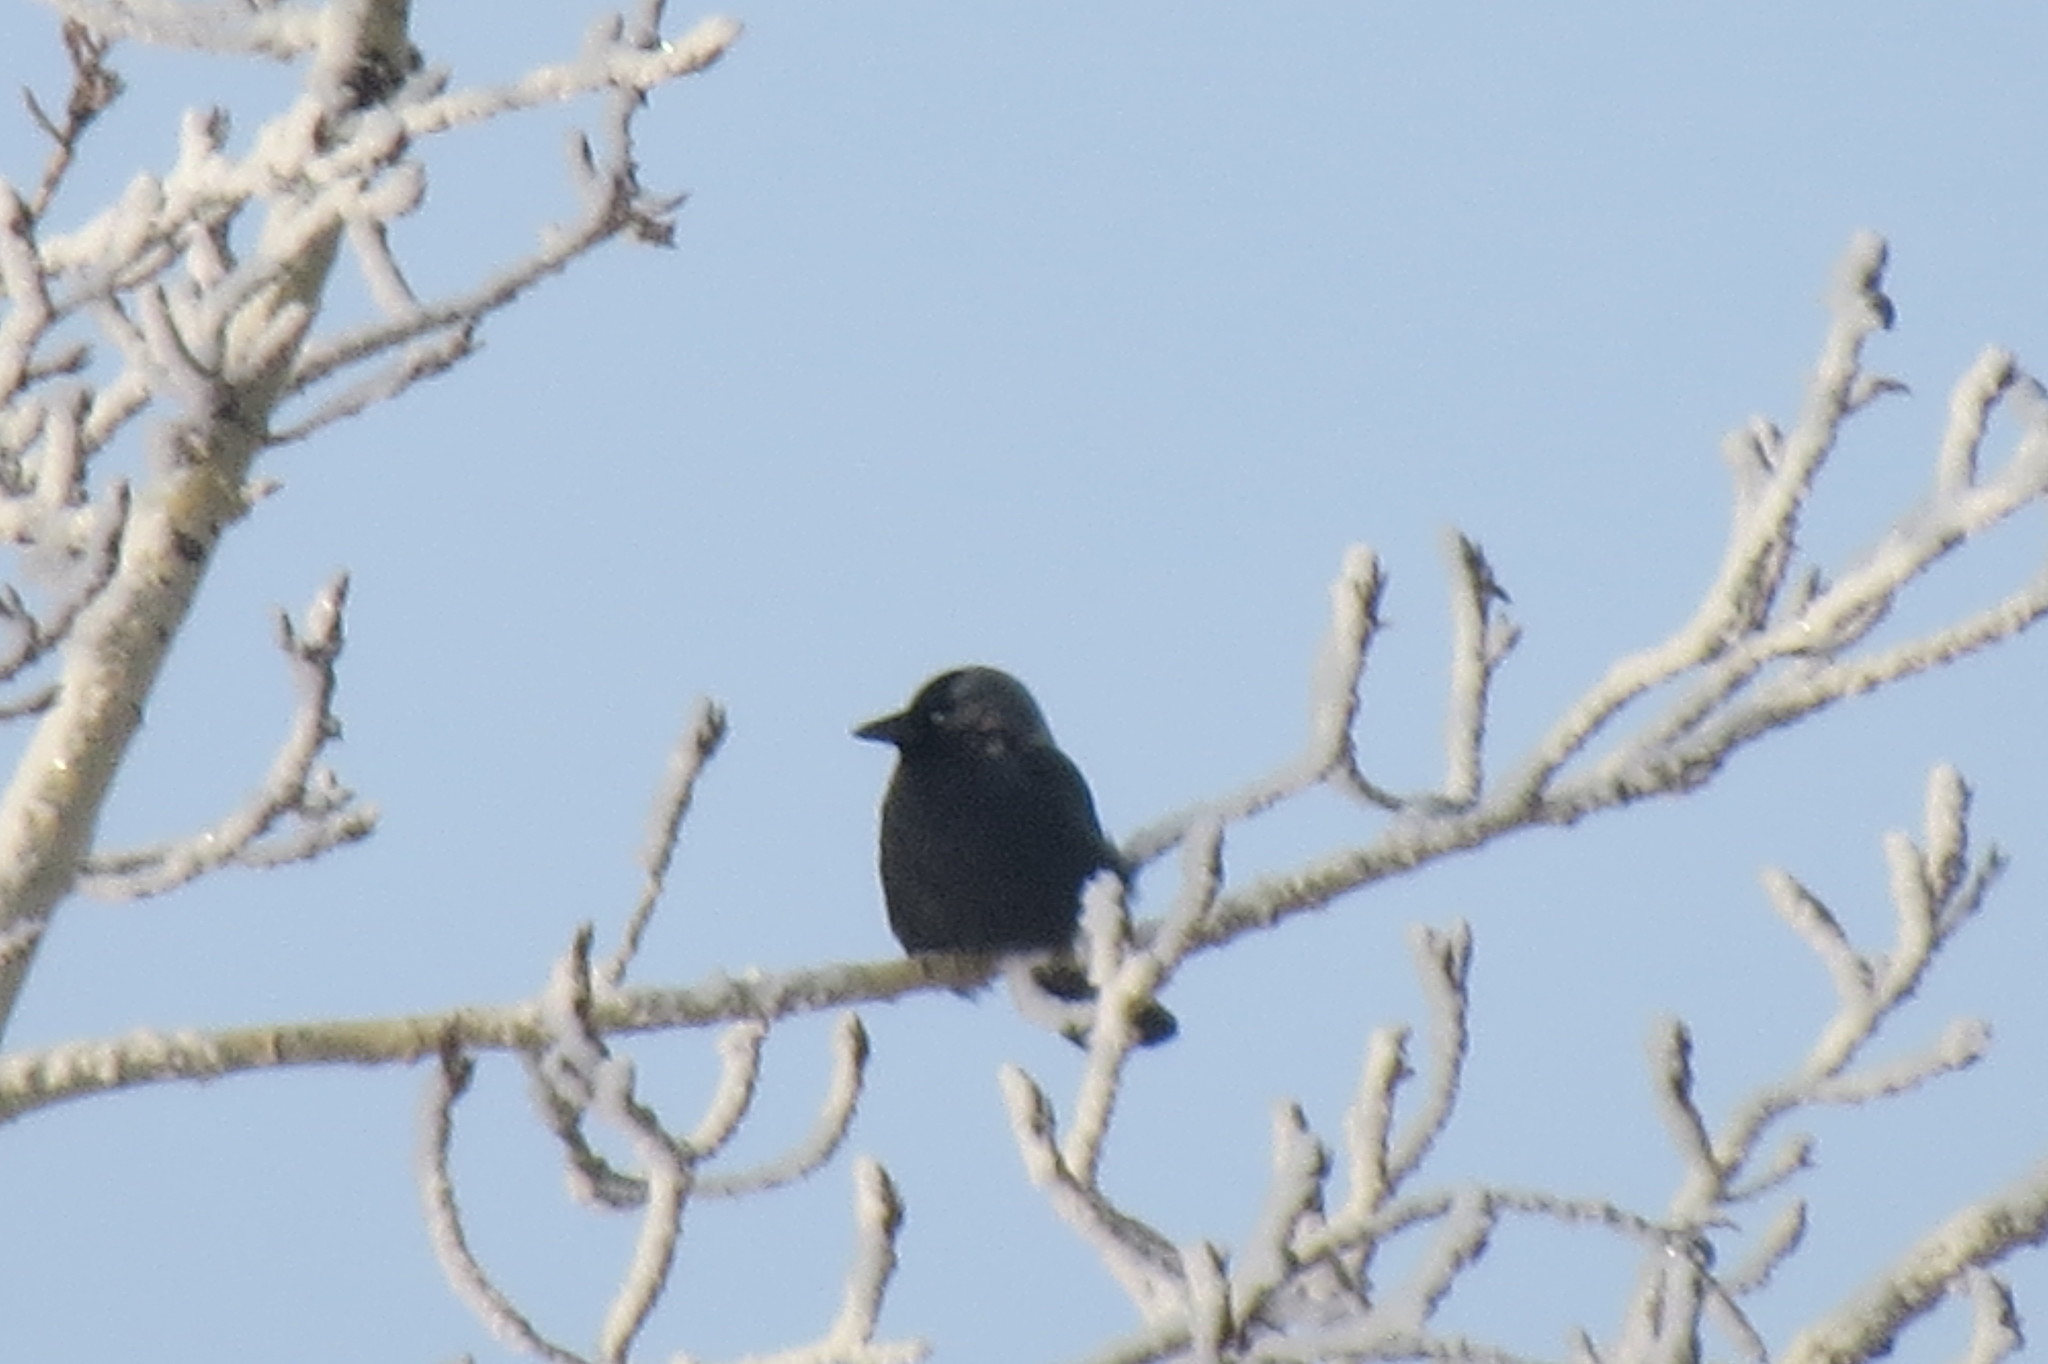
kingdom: Animalia
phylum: Chordata
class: Aves
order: Passeriformes
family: Corvidae
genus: Coloeus
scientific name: Coloeus monedula
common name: Western jackdaw
